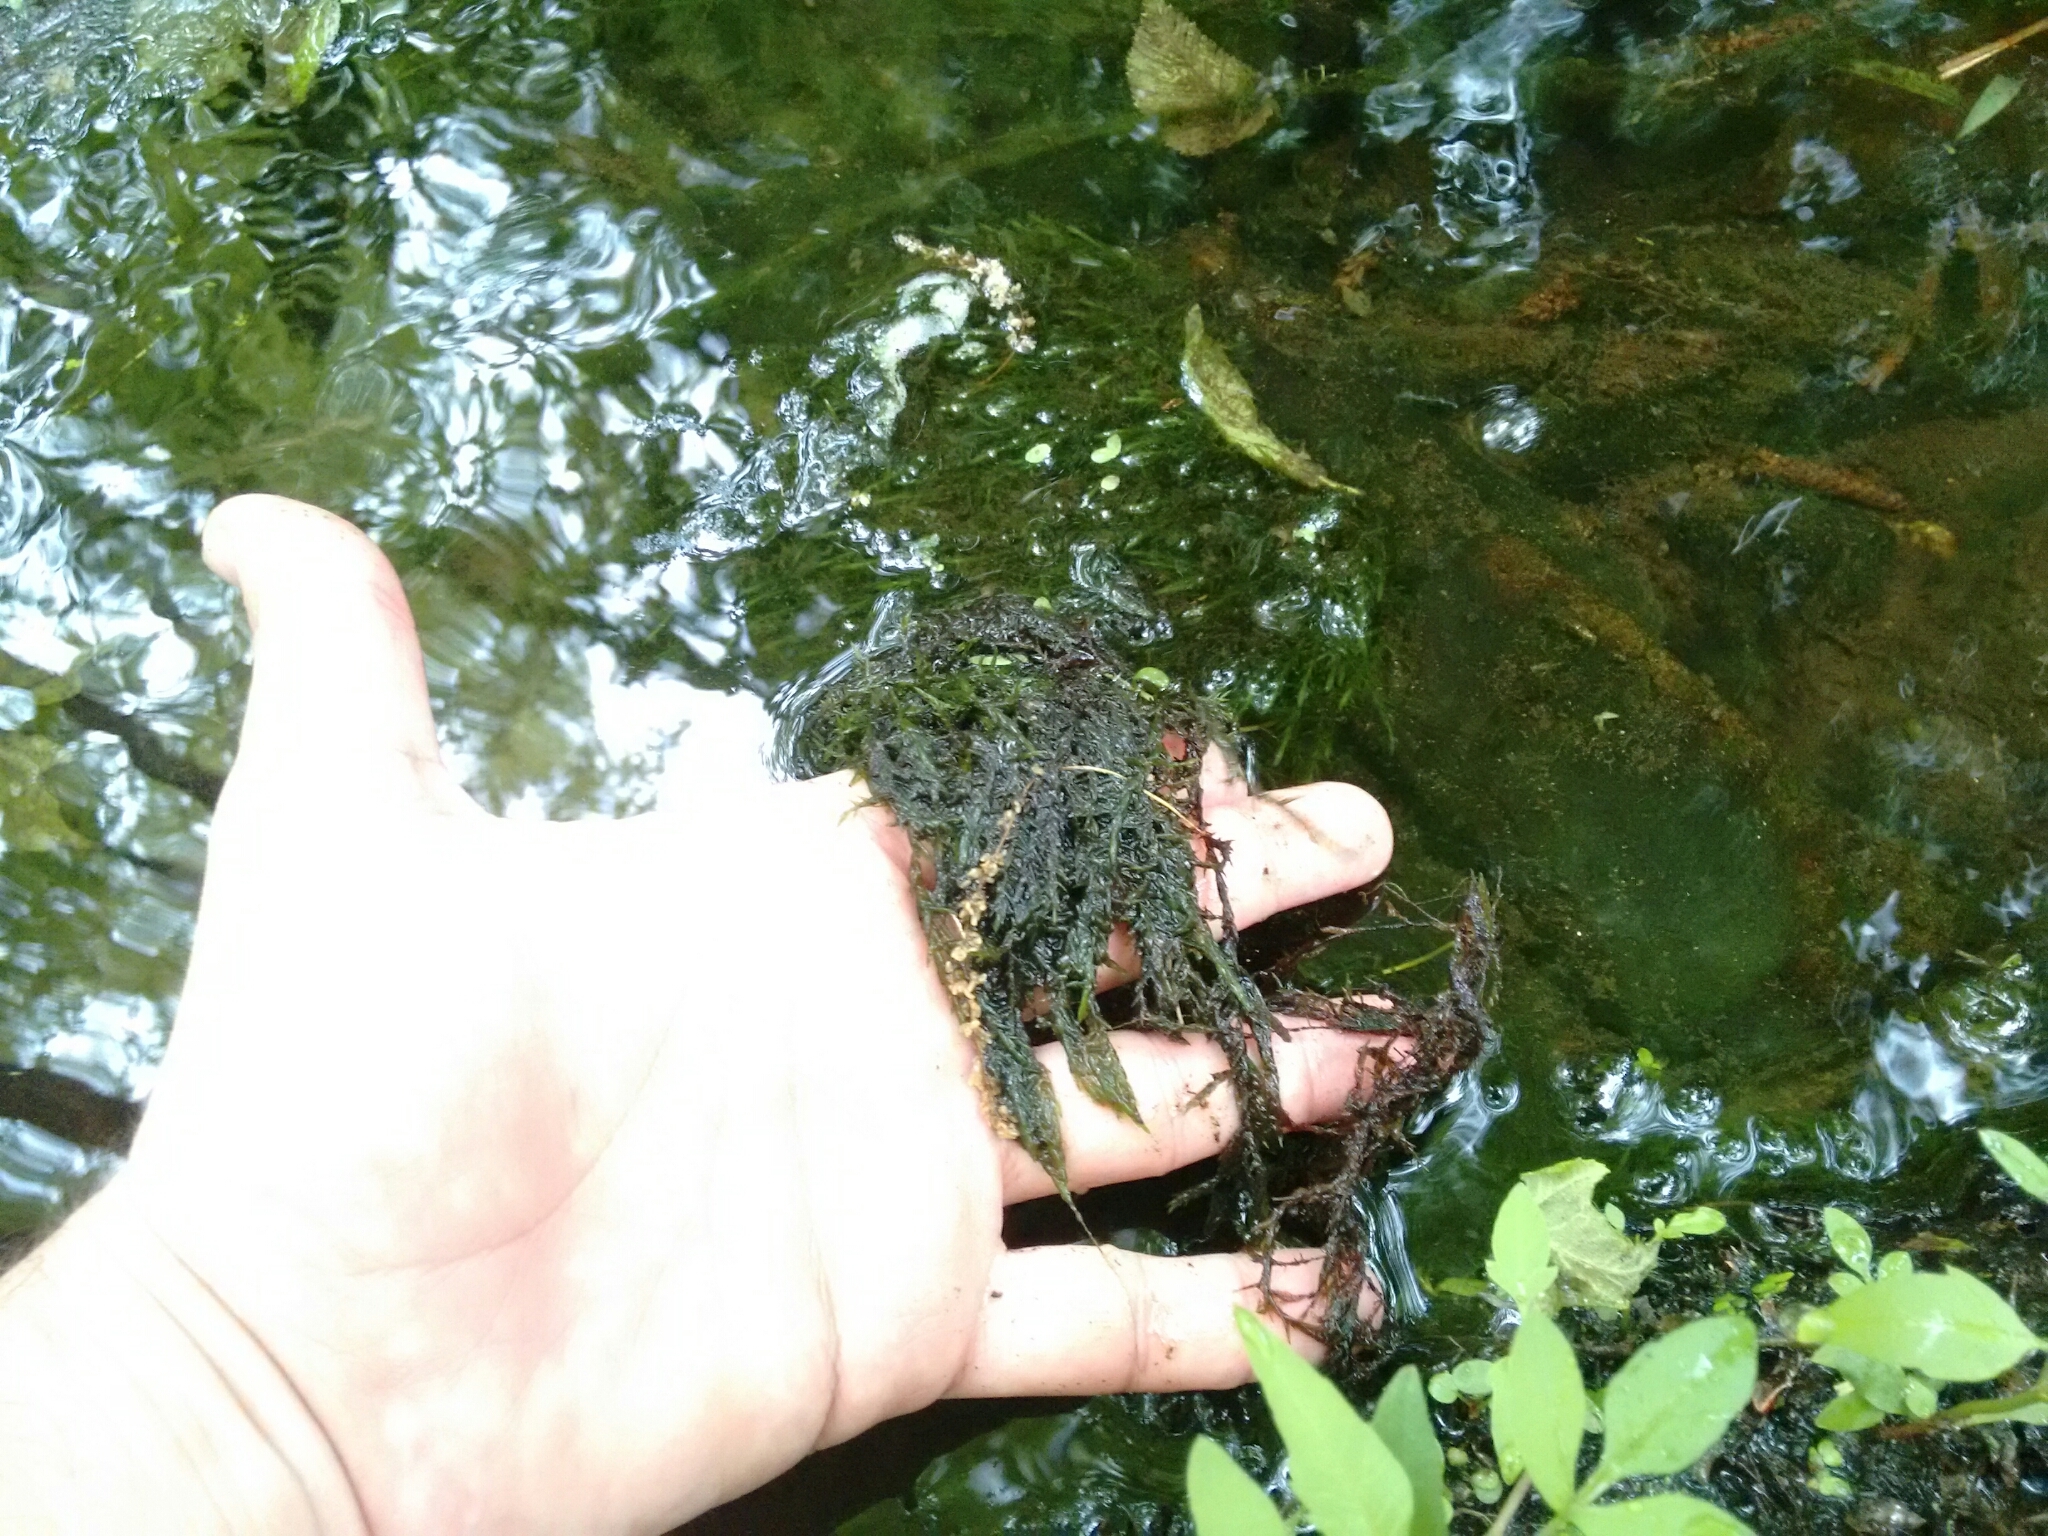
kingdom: Plantae
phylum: Bryophyta
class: Bryopsida
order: Hypnales
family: Fontinalaceae
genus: Fontinalis
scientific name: Fontinalis dalecarlica
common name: Slender water moss
